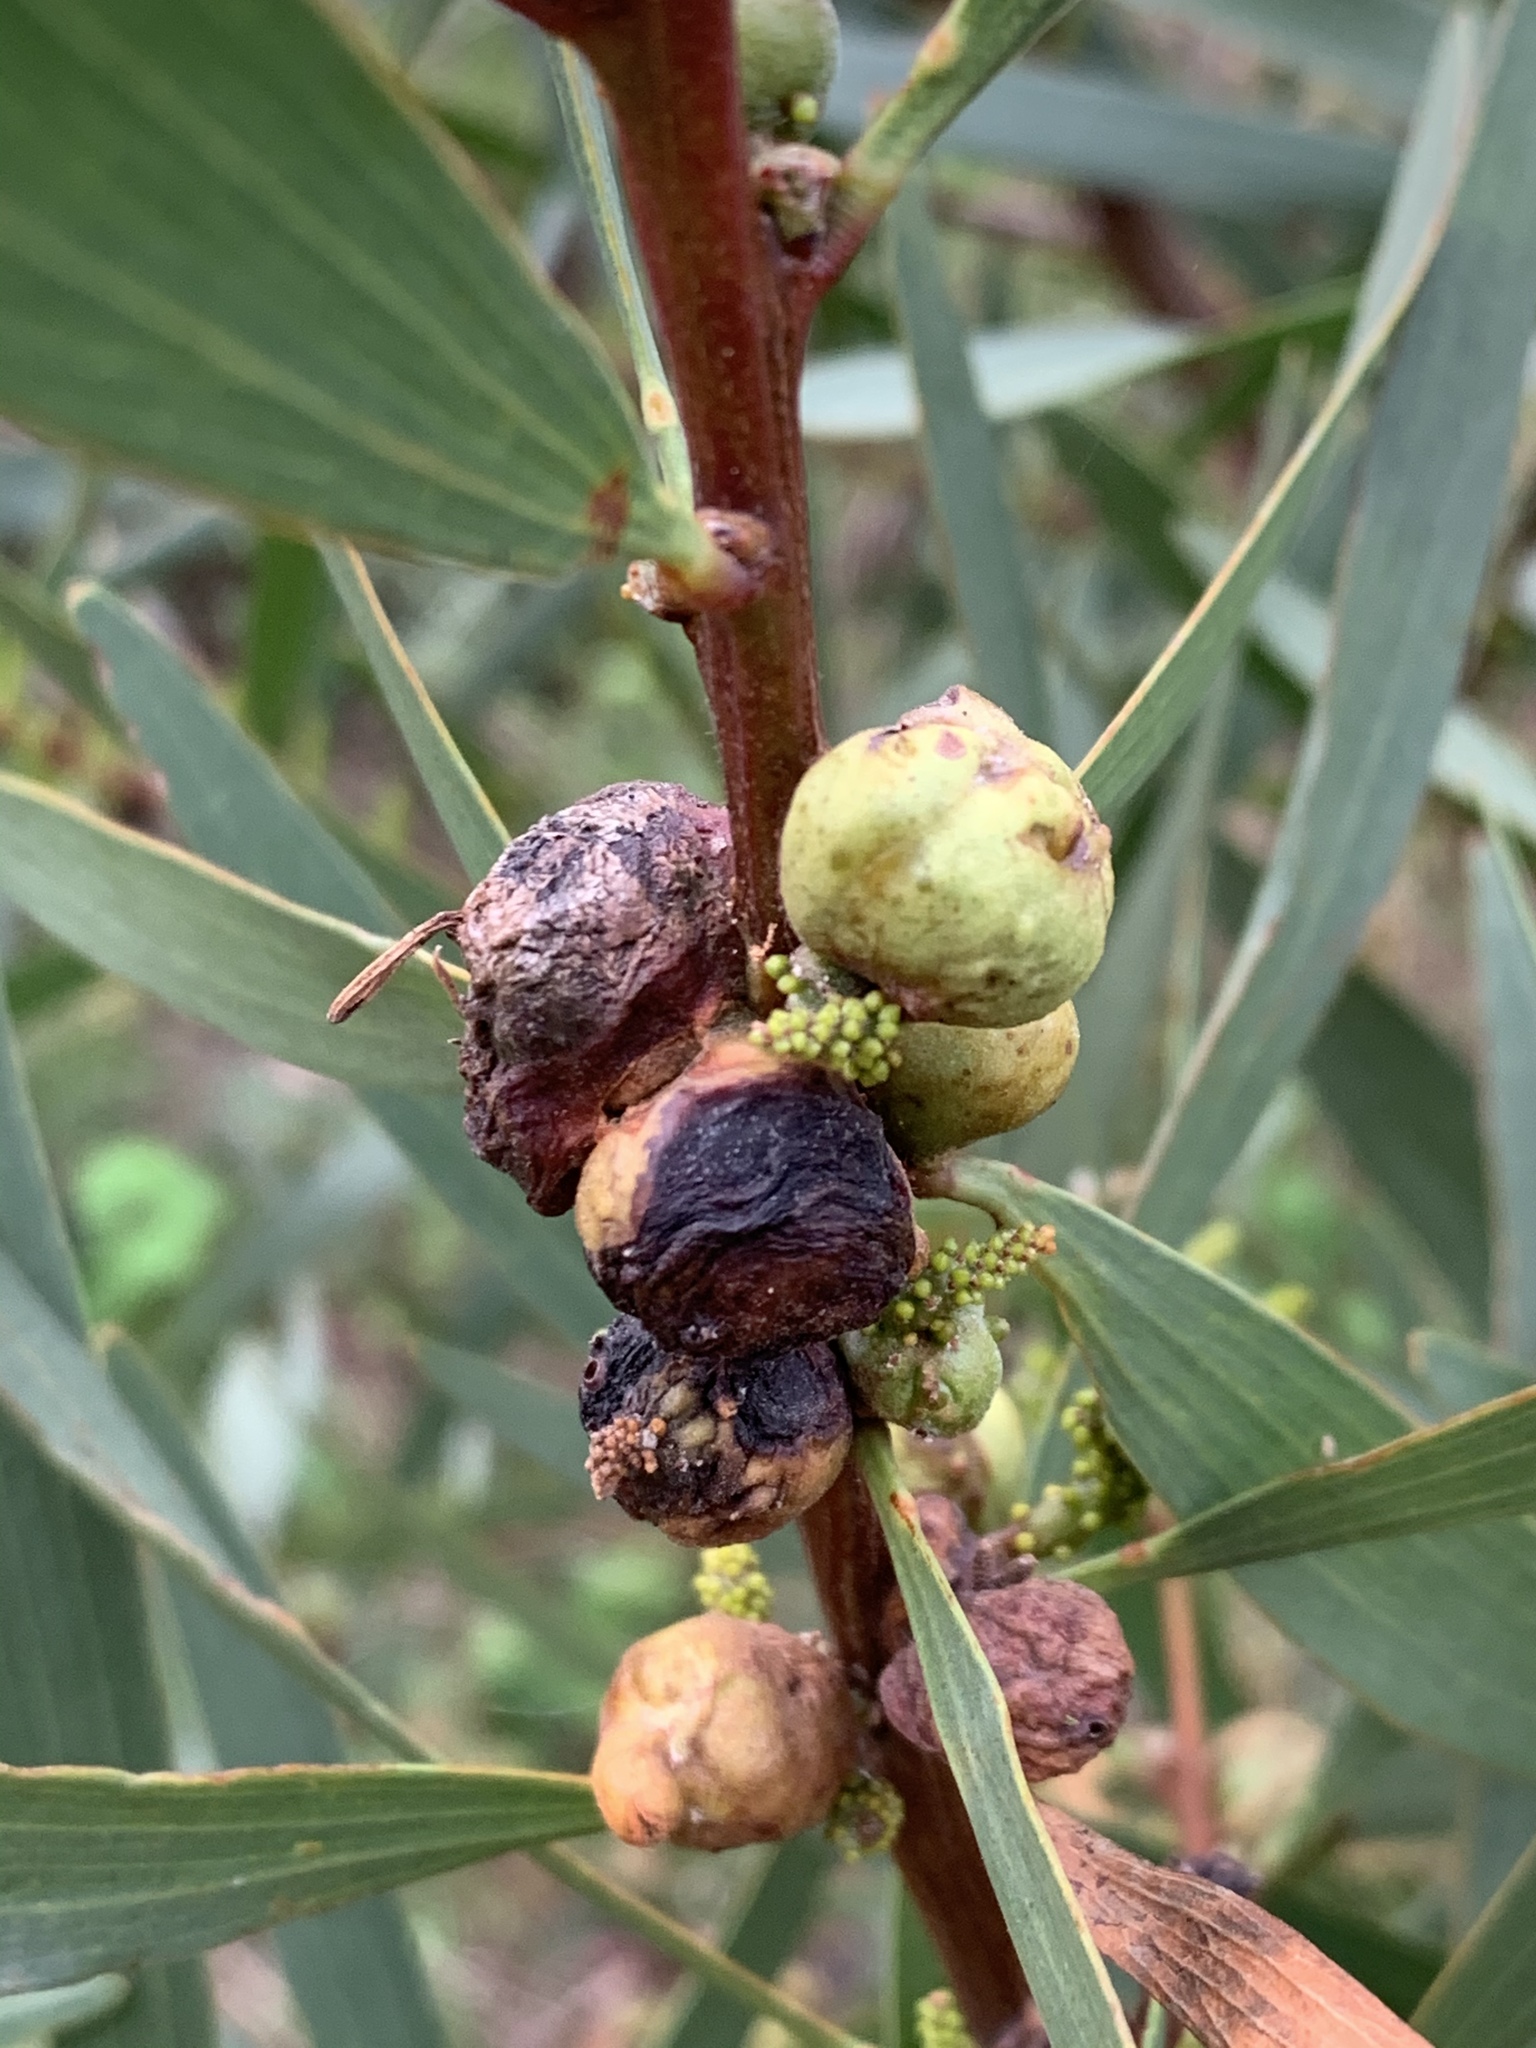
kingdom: Animalia
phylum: Arthropoda
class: Insecta
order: Hymenoptera
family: Pteromalidae
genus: Trichilogaster
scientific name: Trichilogaster acaciaelongifoliae
